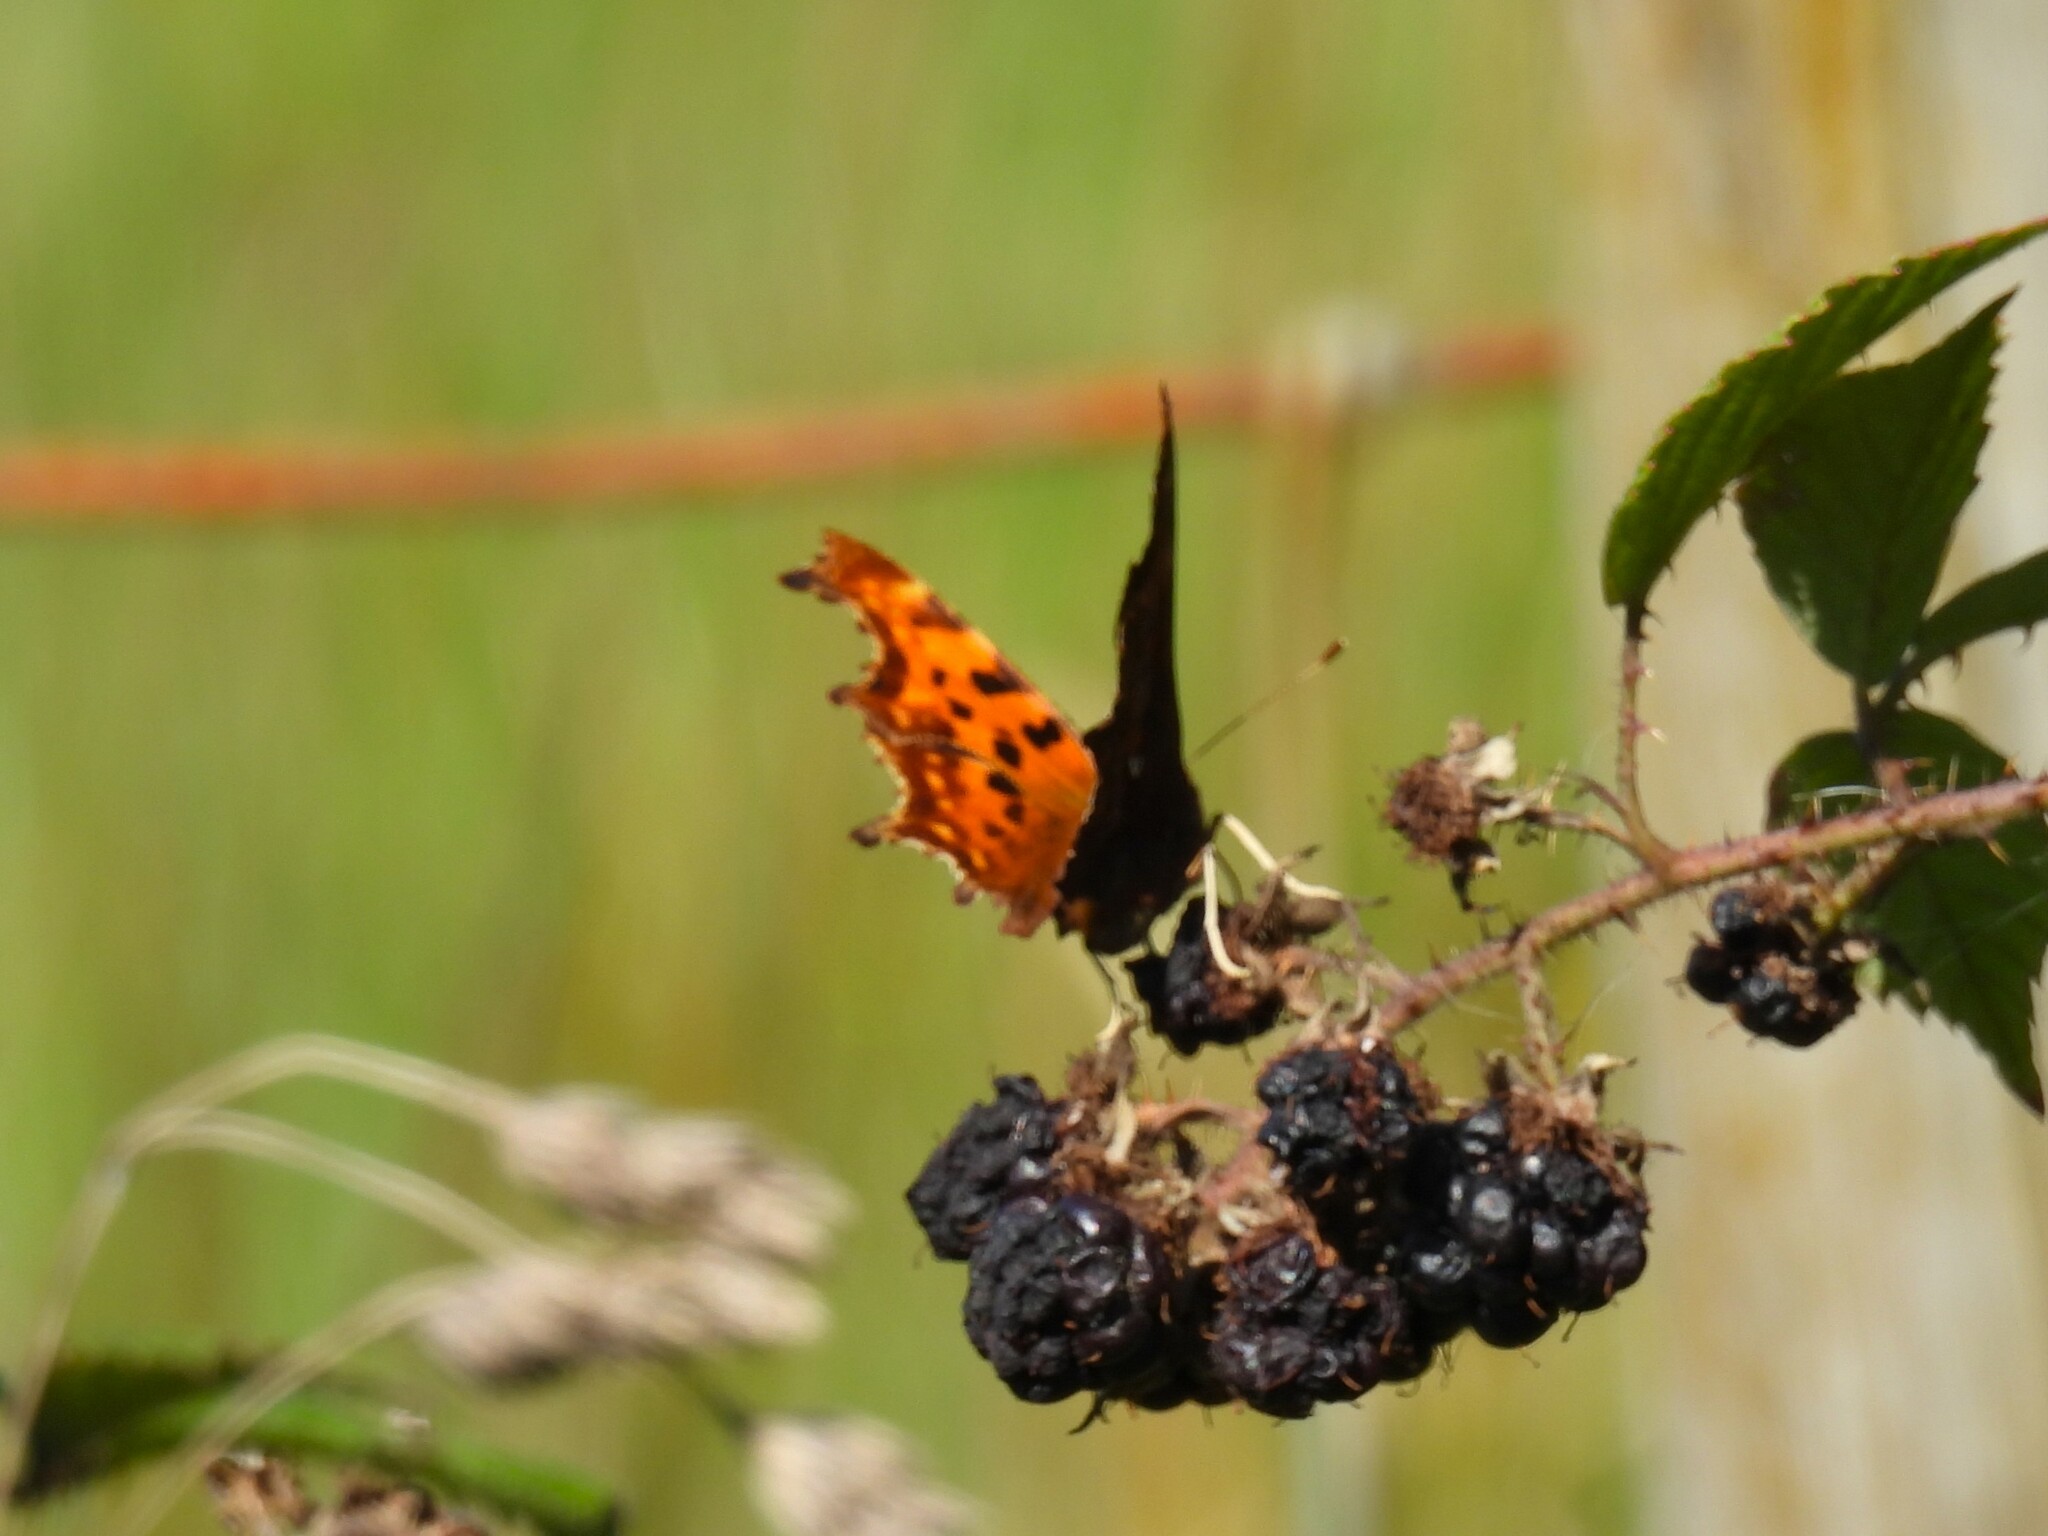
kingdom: Animalia
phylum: Arthropoda
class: Insecta
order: Lepidoptera
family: Nymphalidae
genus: Polygonia
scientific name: Polygonia c-album
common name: Comma
